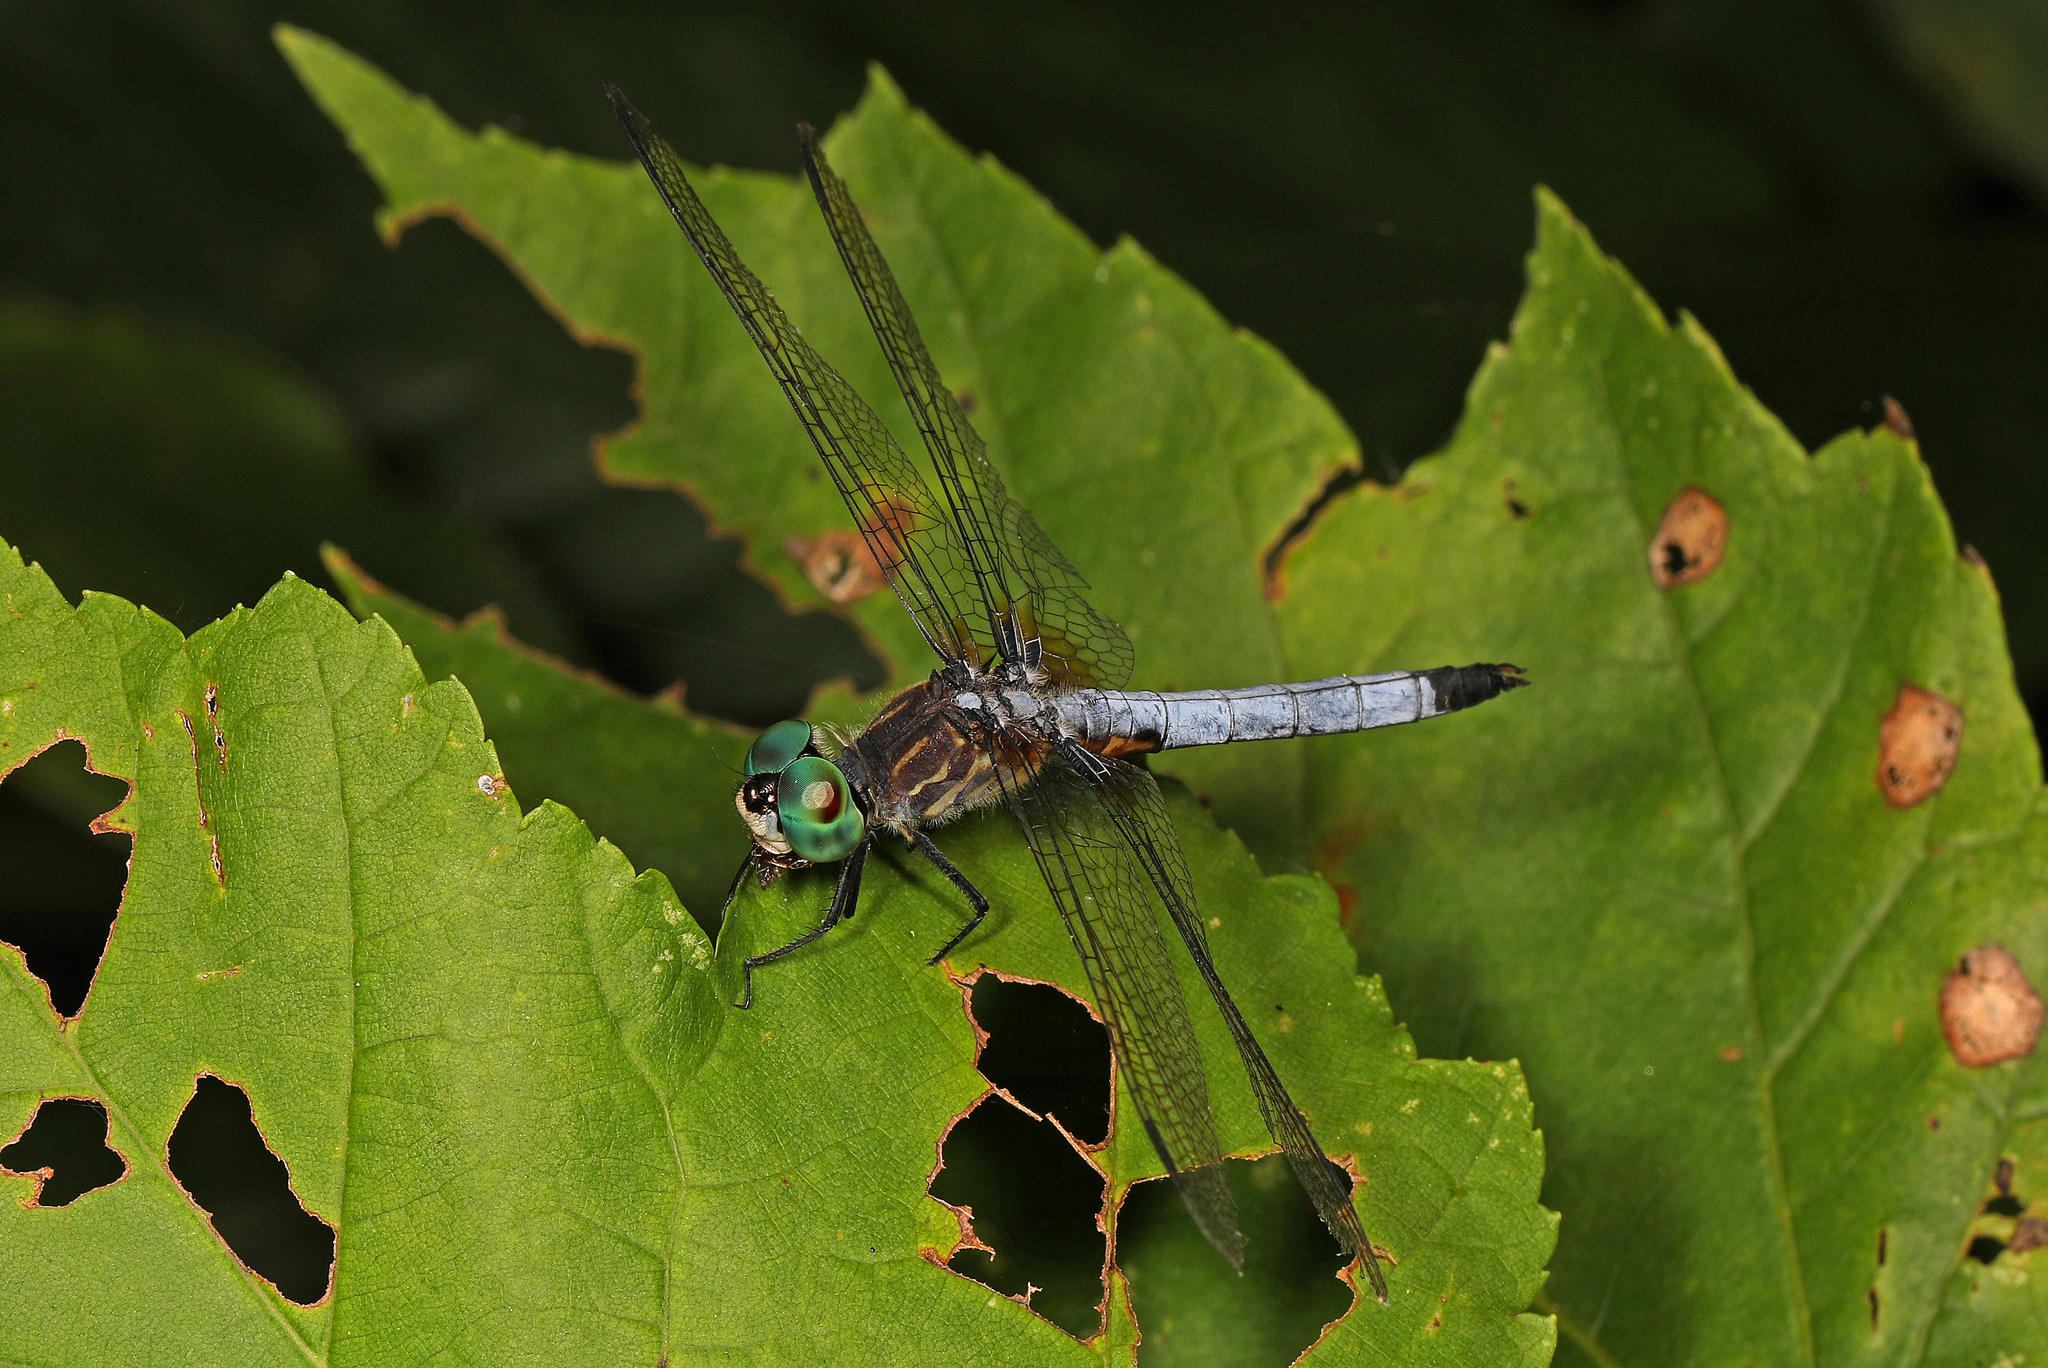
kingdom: Animalia
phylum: Arthropoda
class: Insecta
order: Odonata
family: Libellulidae
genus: Pachydiplax
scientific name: Pachydiplax longipennis
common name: Blue dasher
